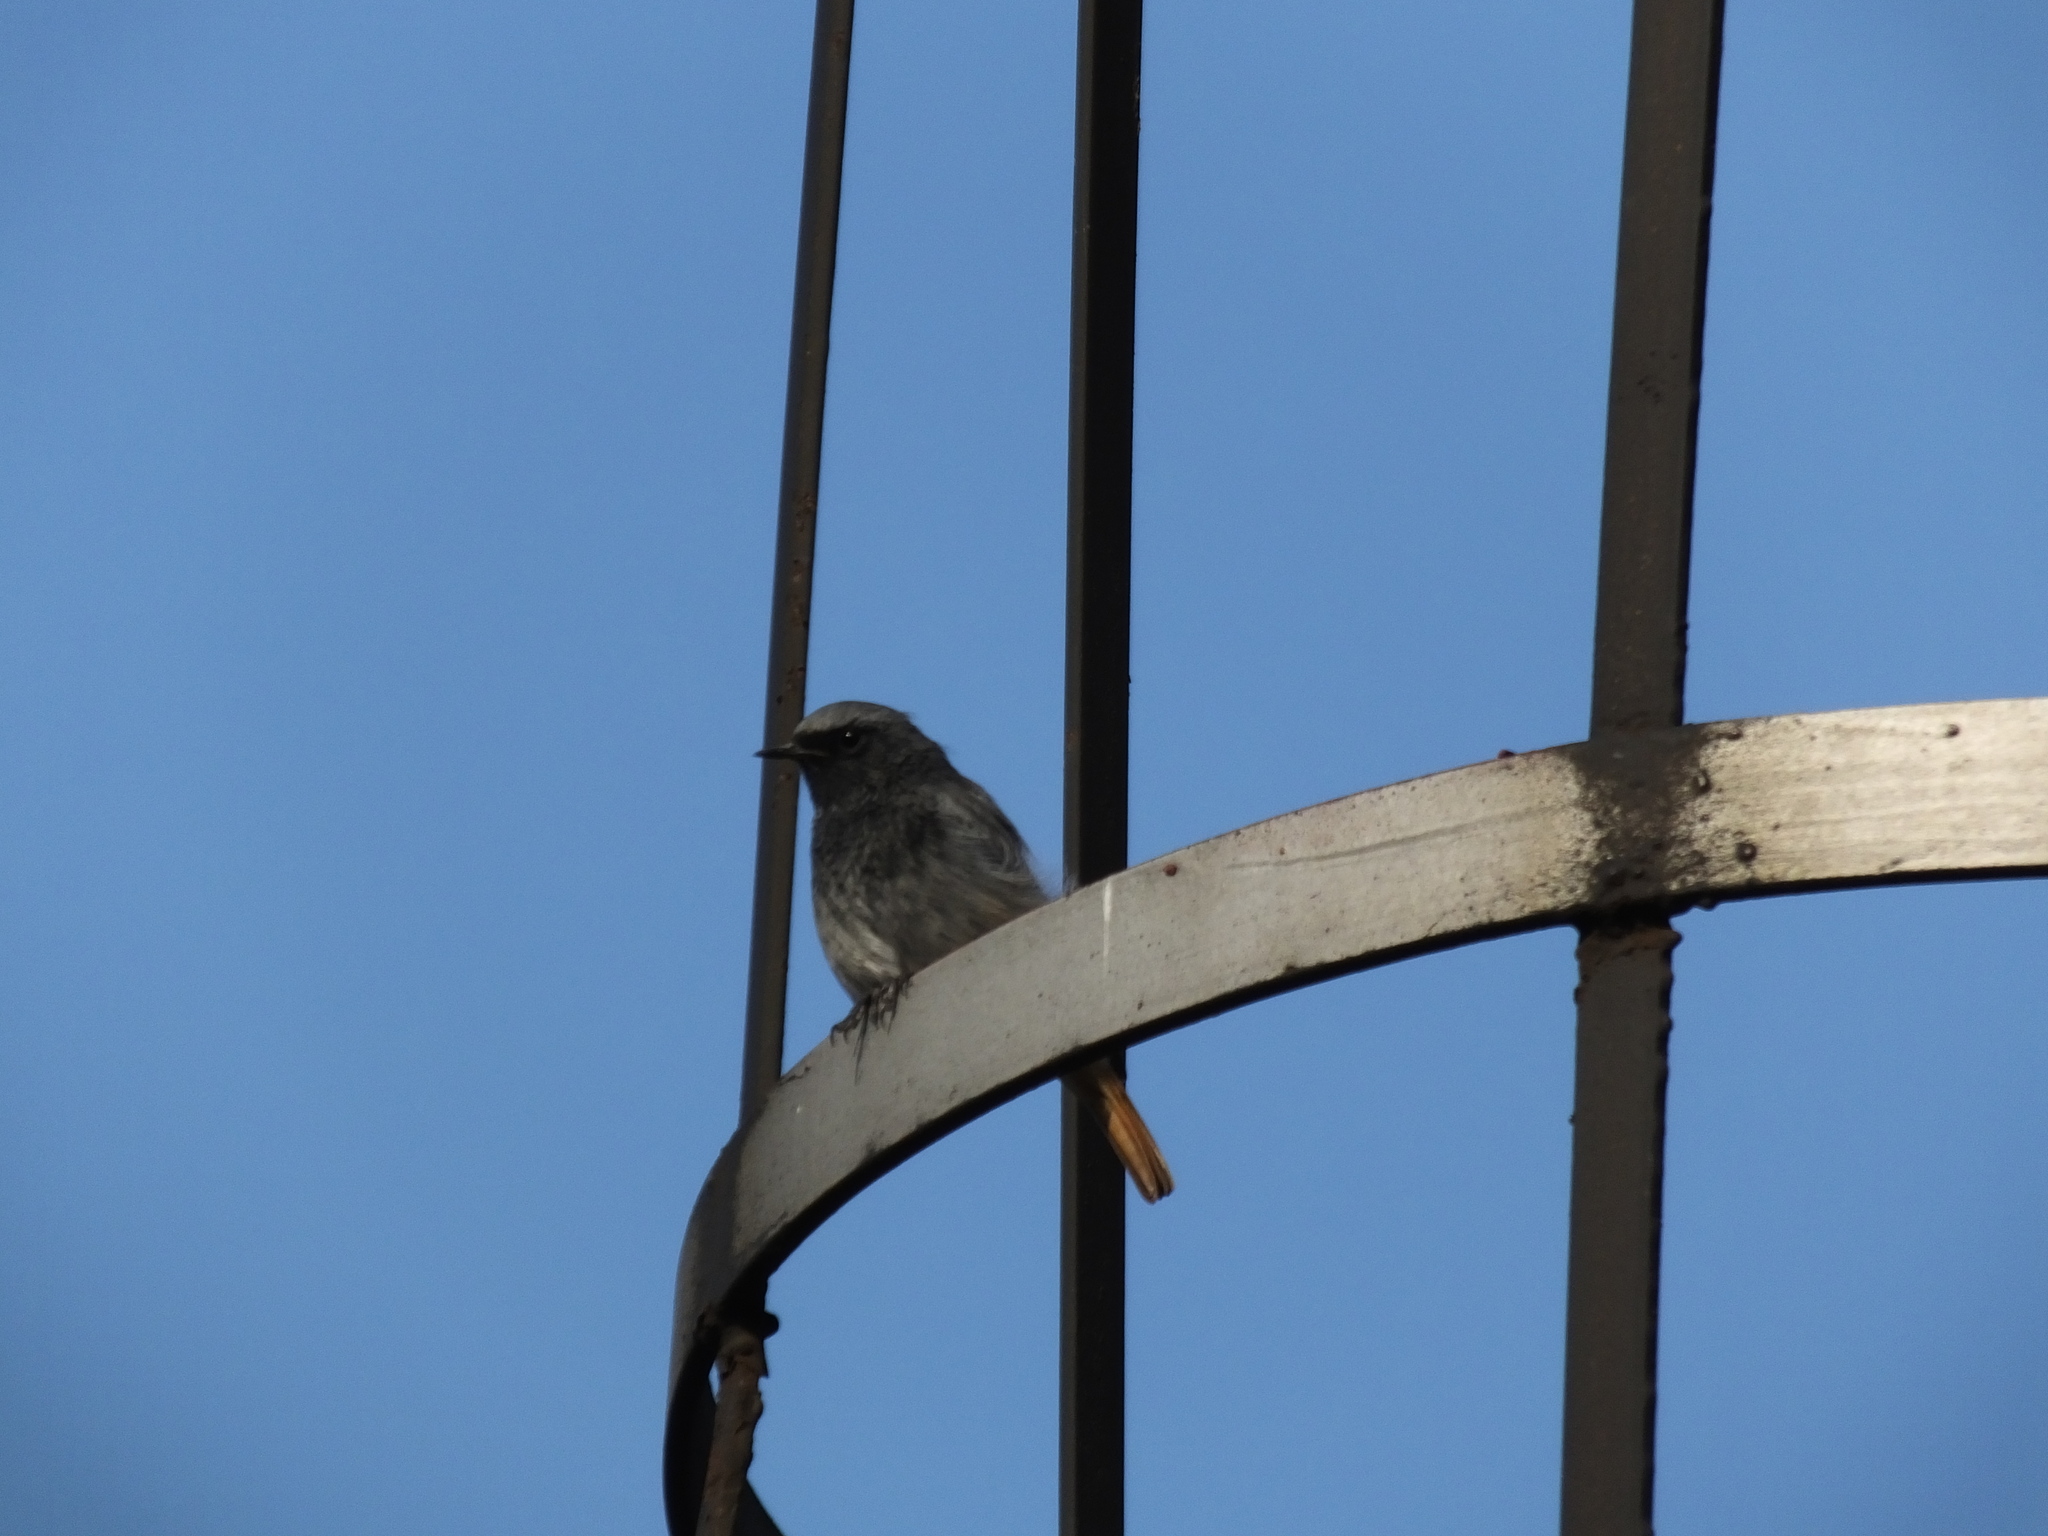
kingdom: Animalia
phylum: Chordata
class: Aves
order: Passeriformes
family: Muscicapidae
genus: Phoenicurus
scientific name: Phoenicurus ochruros
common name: Black redstart
